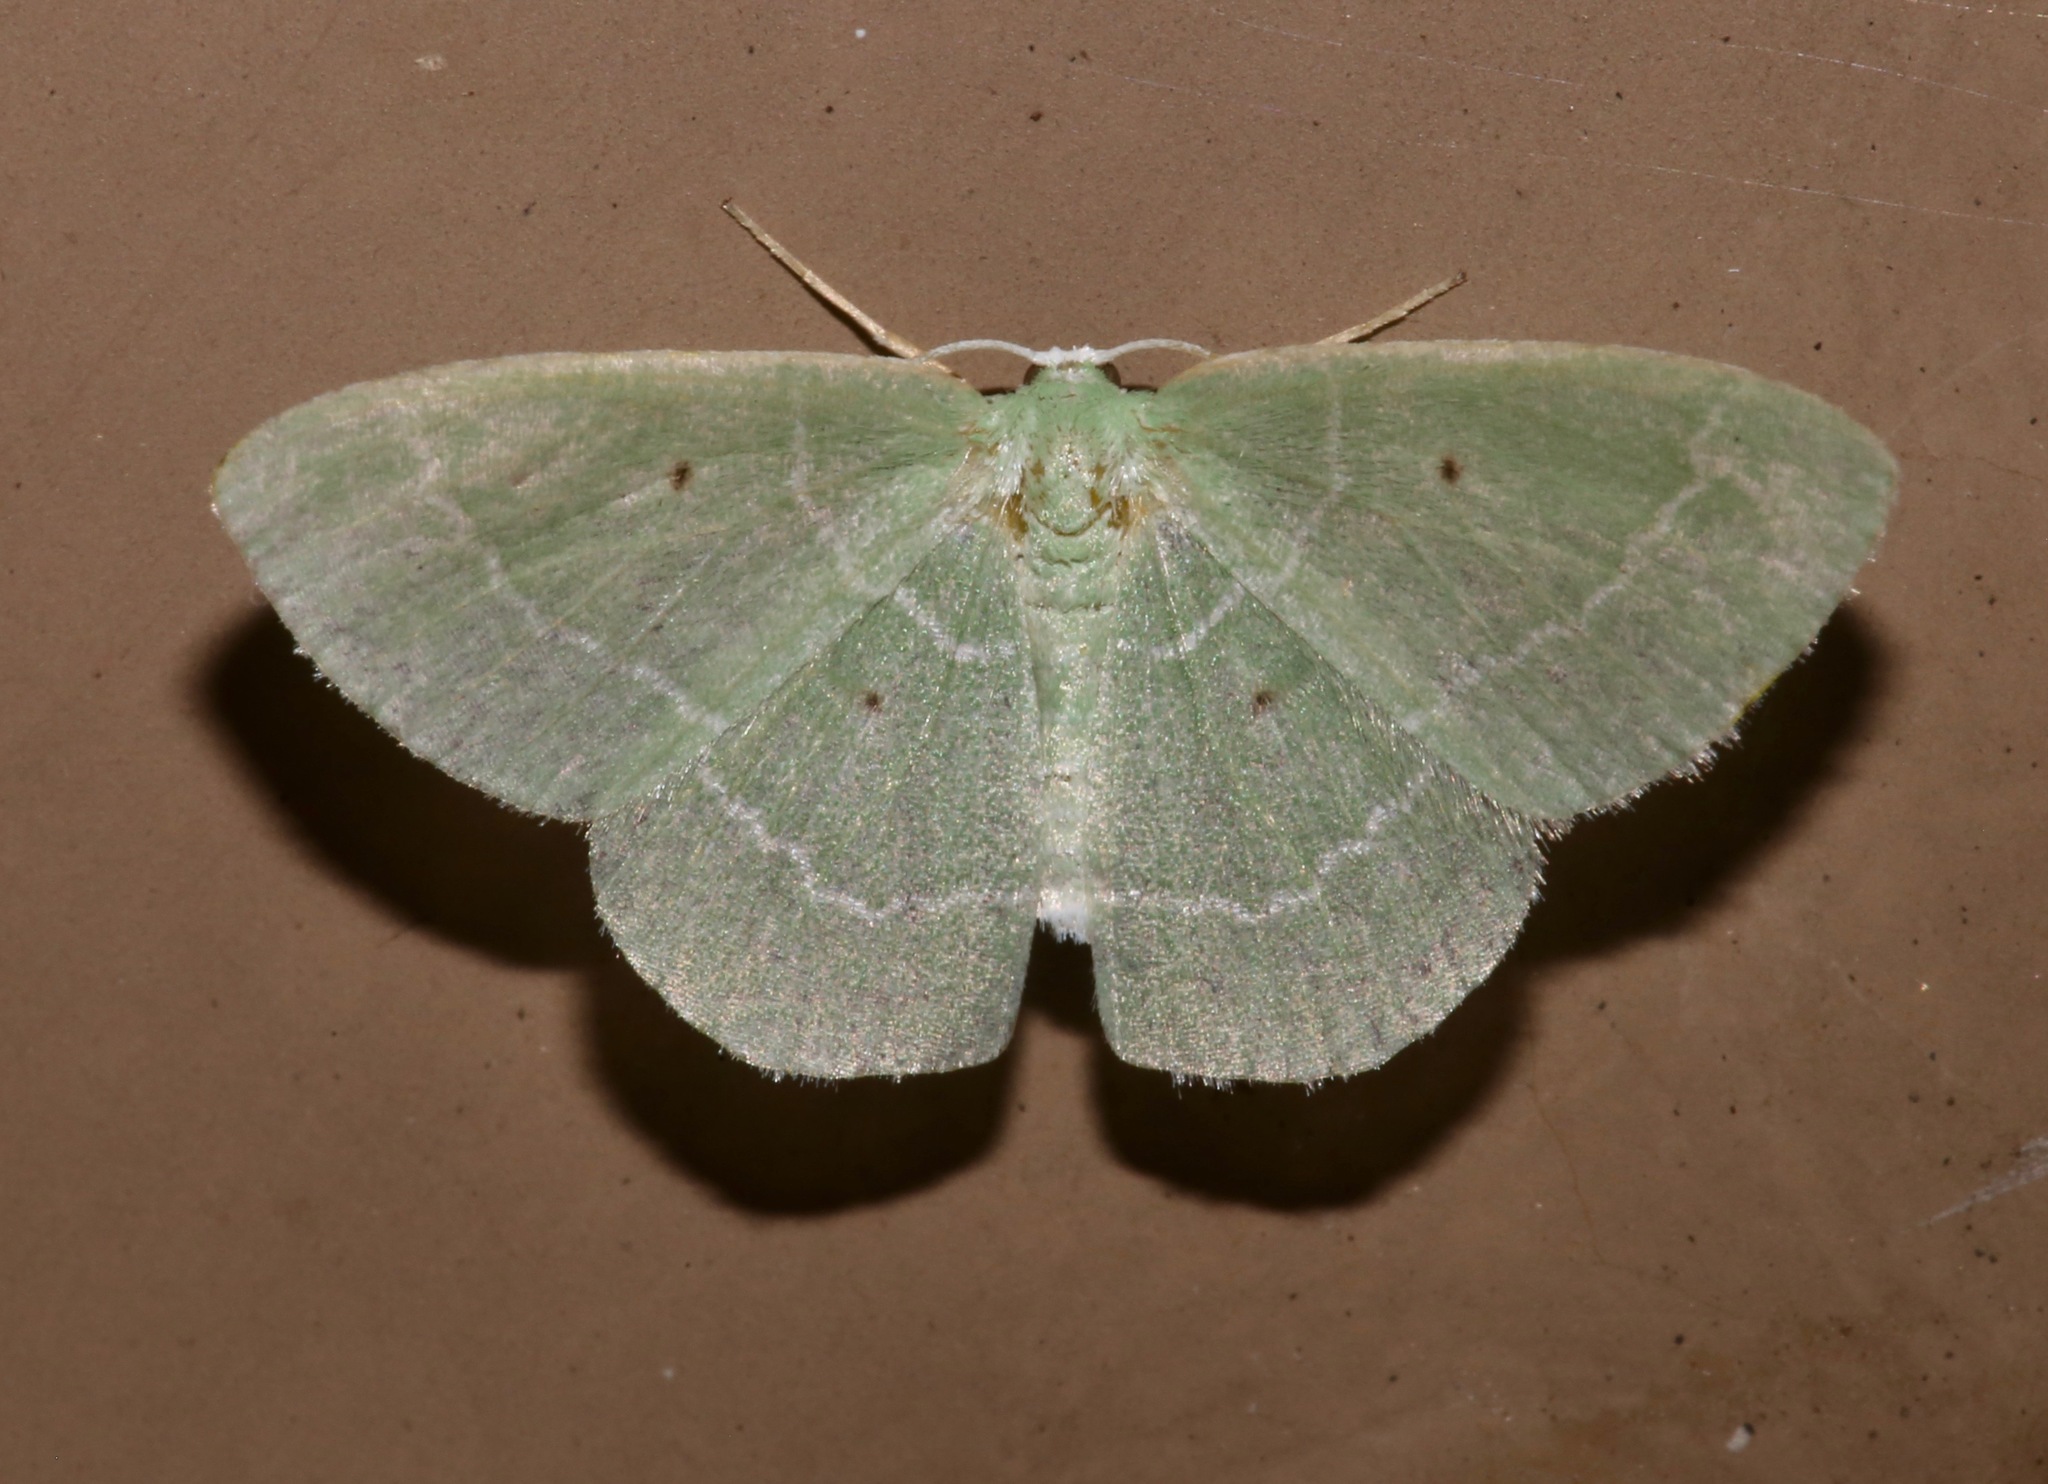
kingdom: Animalia
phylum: Arthropoda
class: Insecta
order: Lepidoptera
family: Geometridae
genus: Nemoria
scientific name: Nemoria elfa
